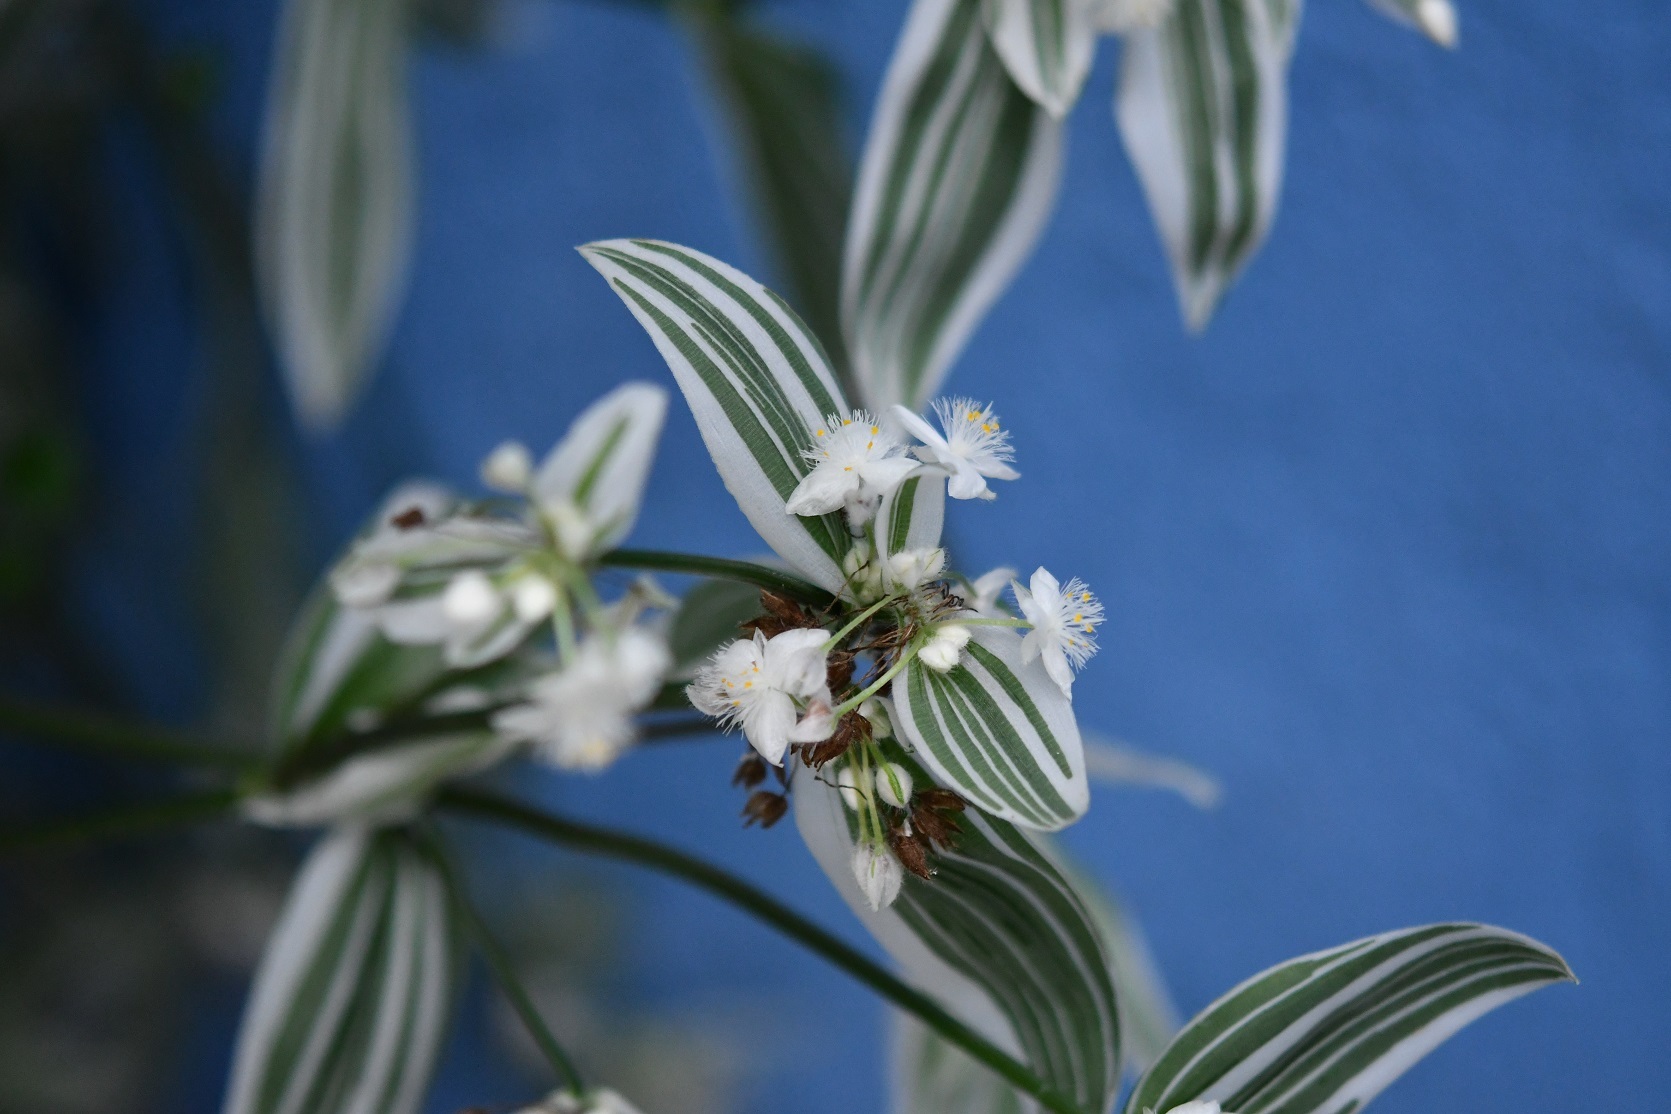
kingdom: Plantae
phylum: Tracheophyta
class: Liliopsida
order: Commelinales
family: Commelinaceae
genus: Tradescantia
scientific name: Tradescantia fluminensis
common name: Wandering-jew
